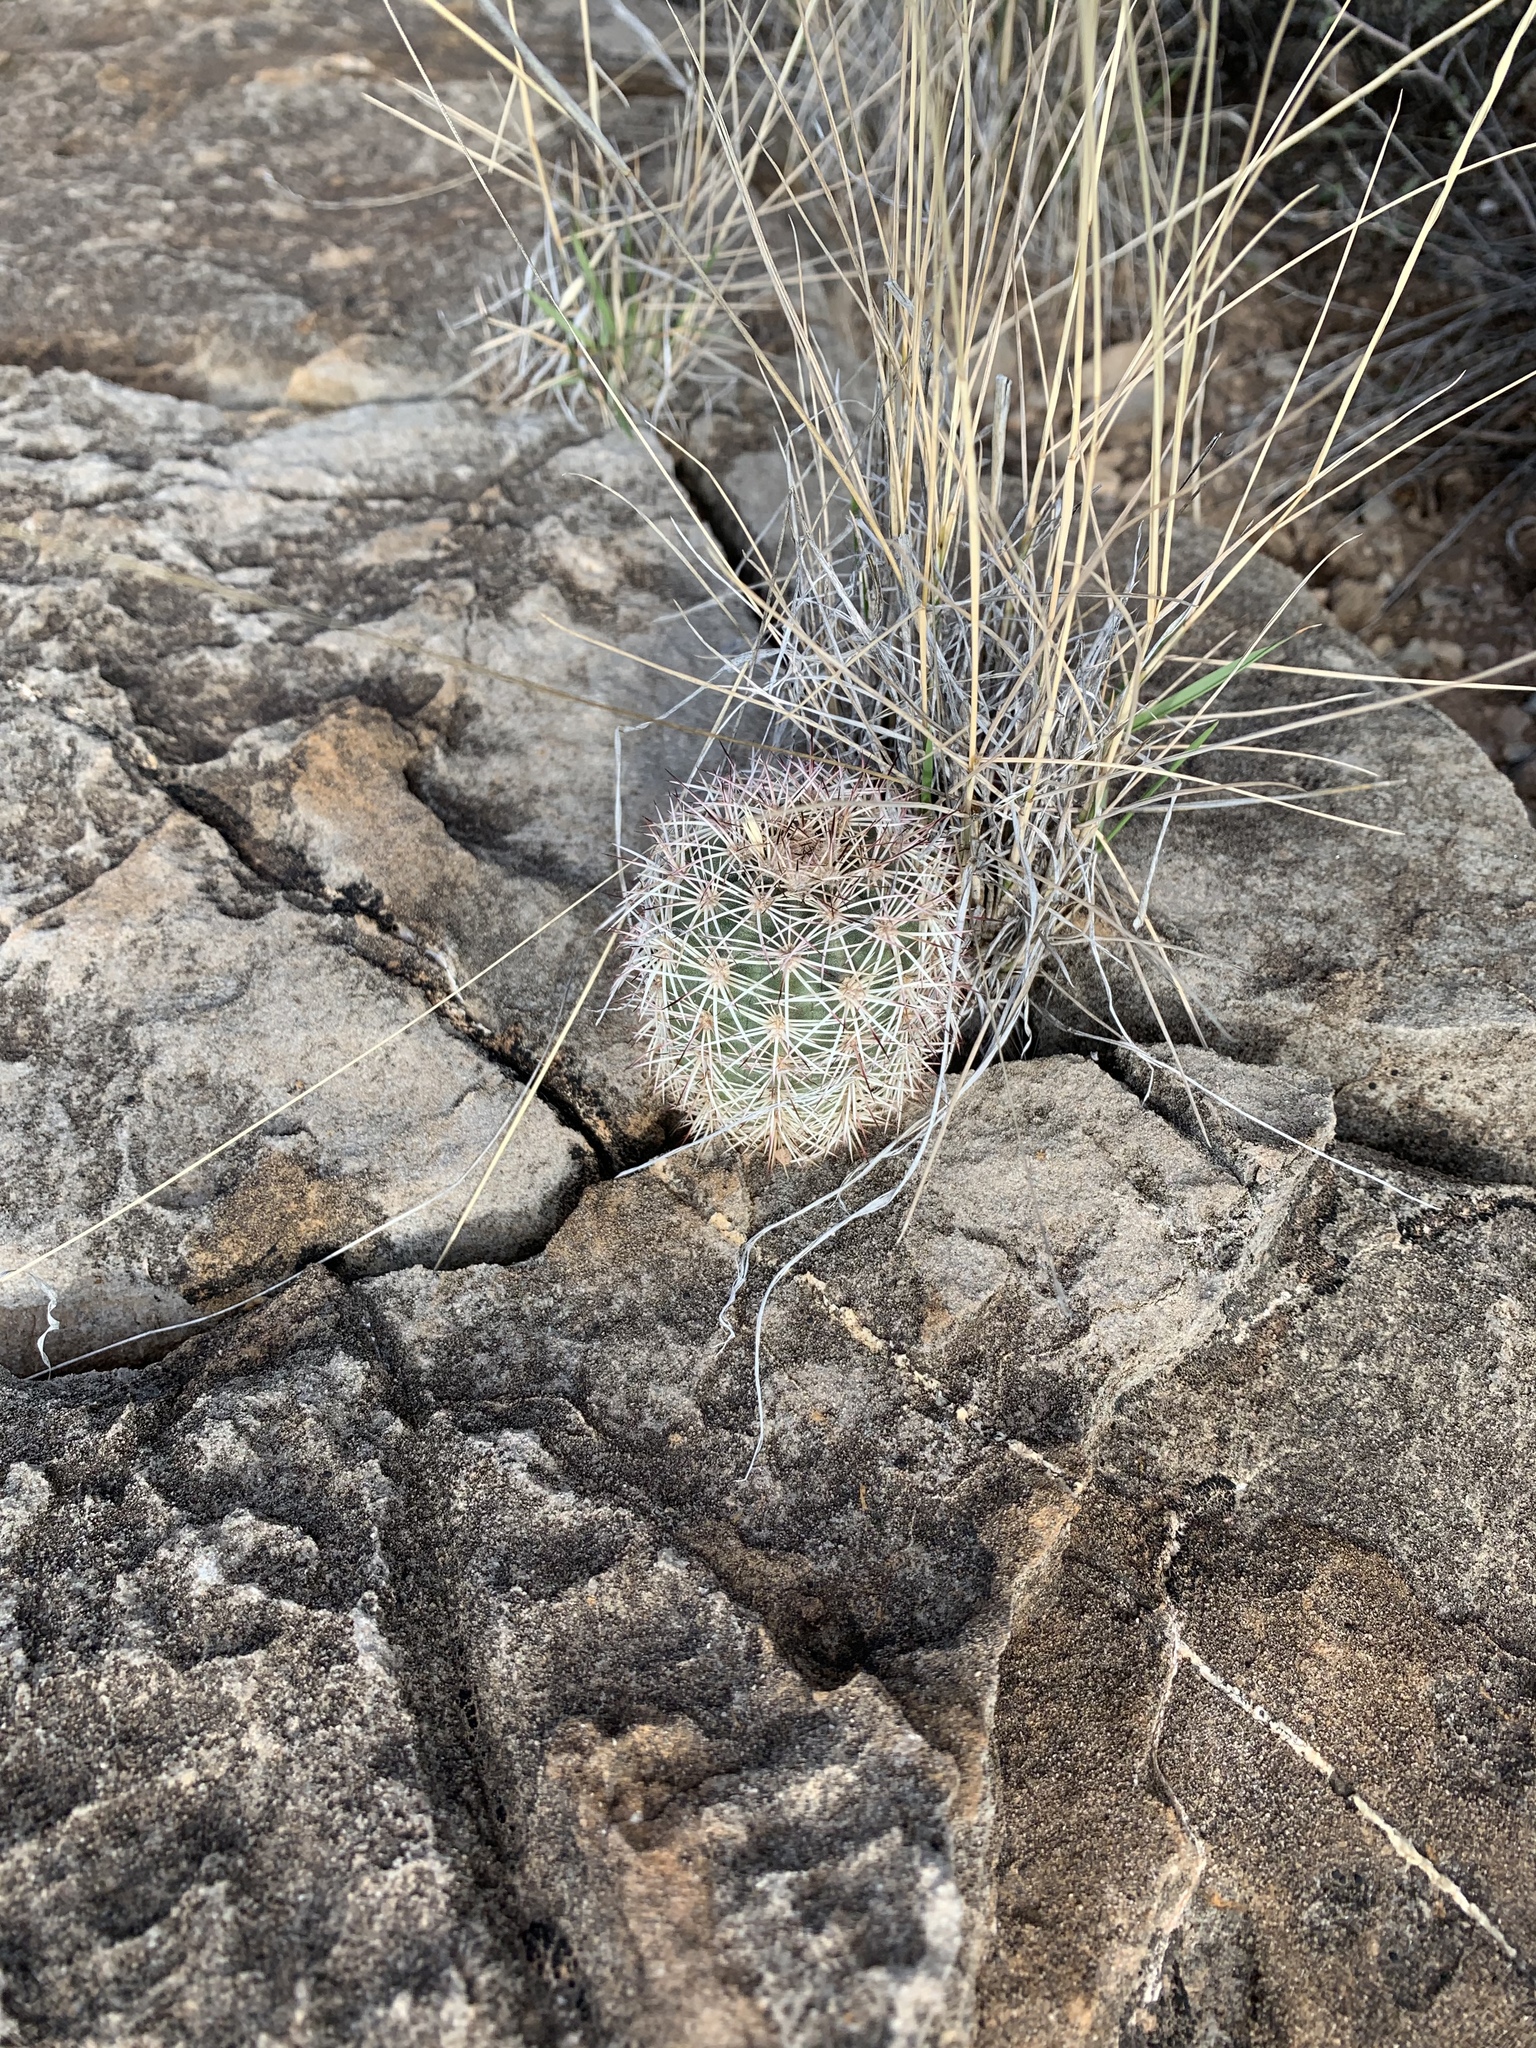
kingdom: Plantae
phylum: Tracheophyta
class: Magnoliopsida
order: Caryophyllales
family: Cactaceae
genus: Echinocereus
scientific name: Echinocereus dasyacanthus
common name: Spiny hedgehog cactus
